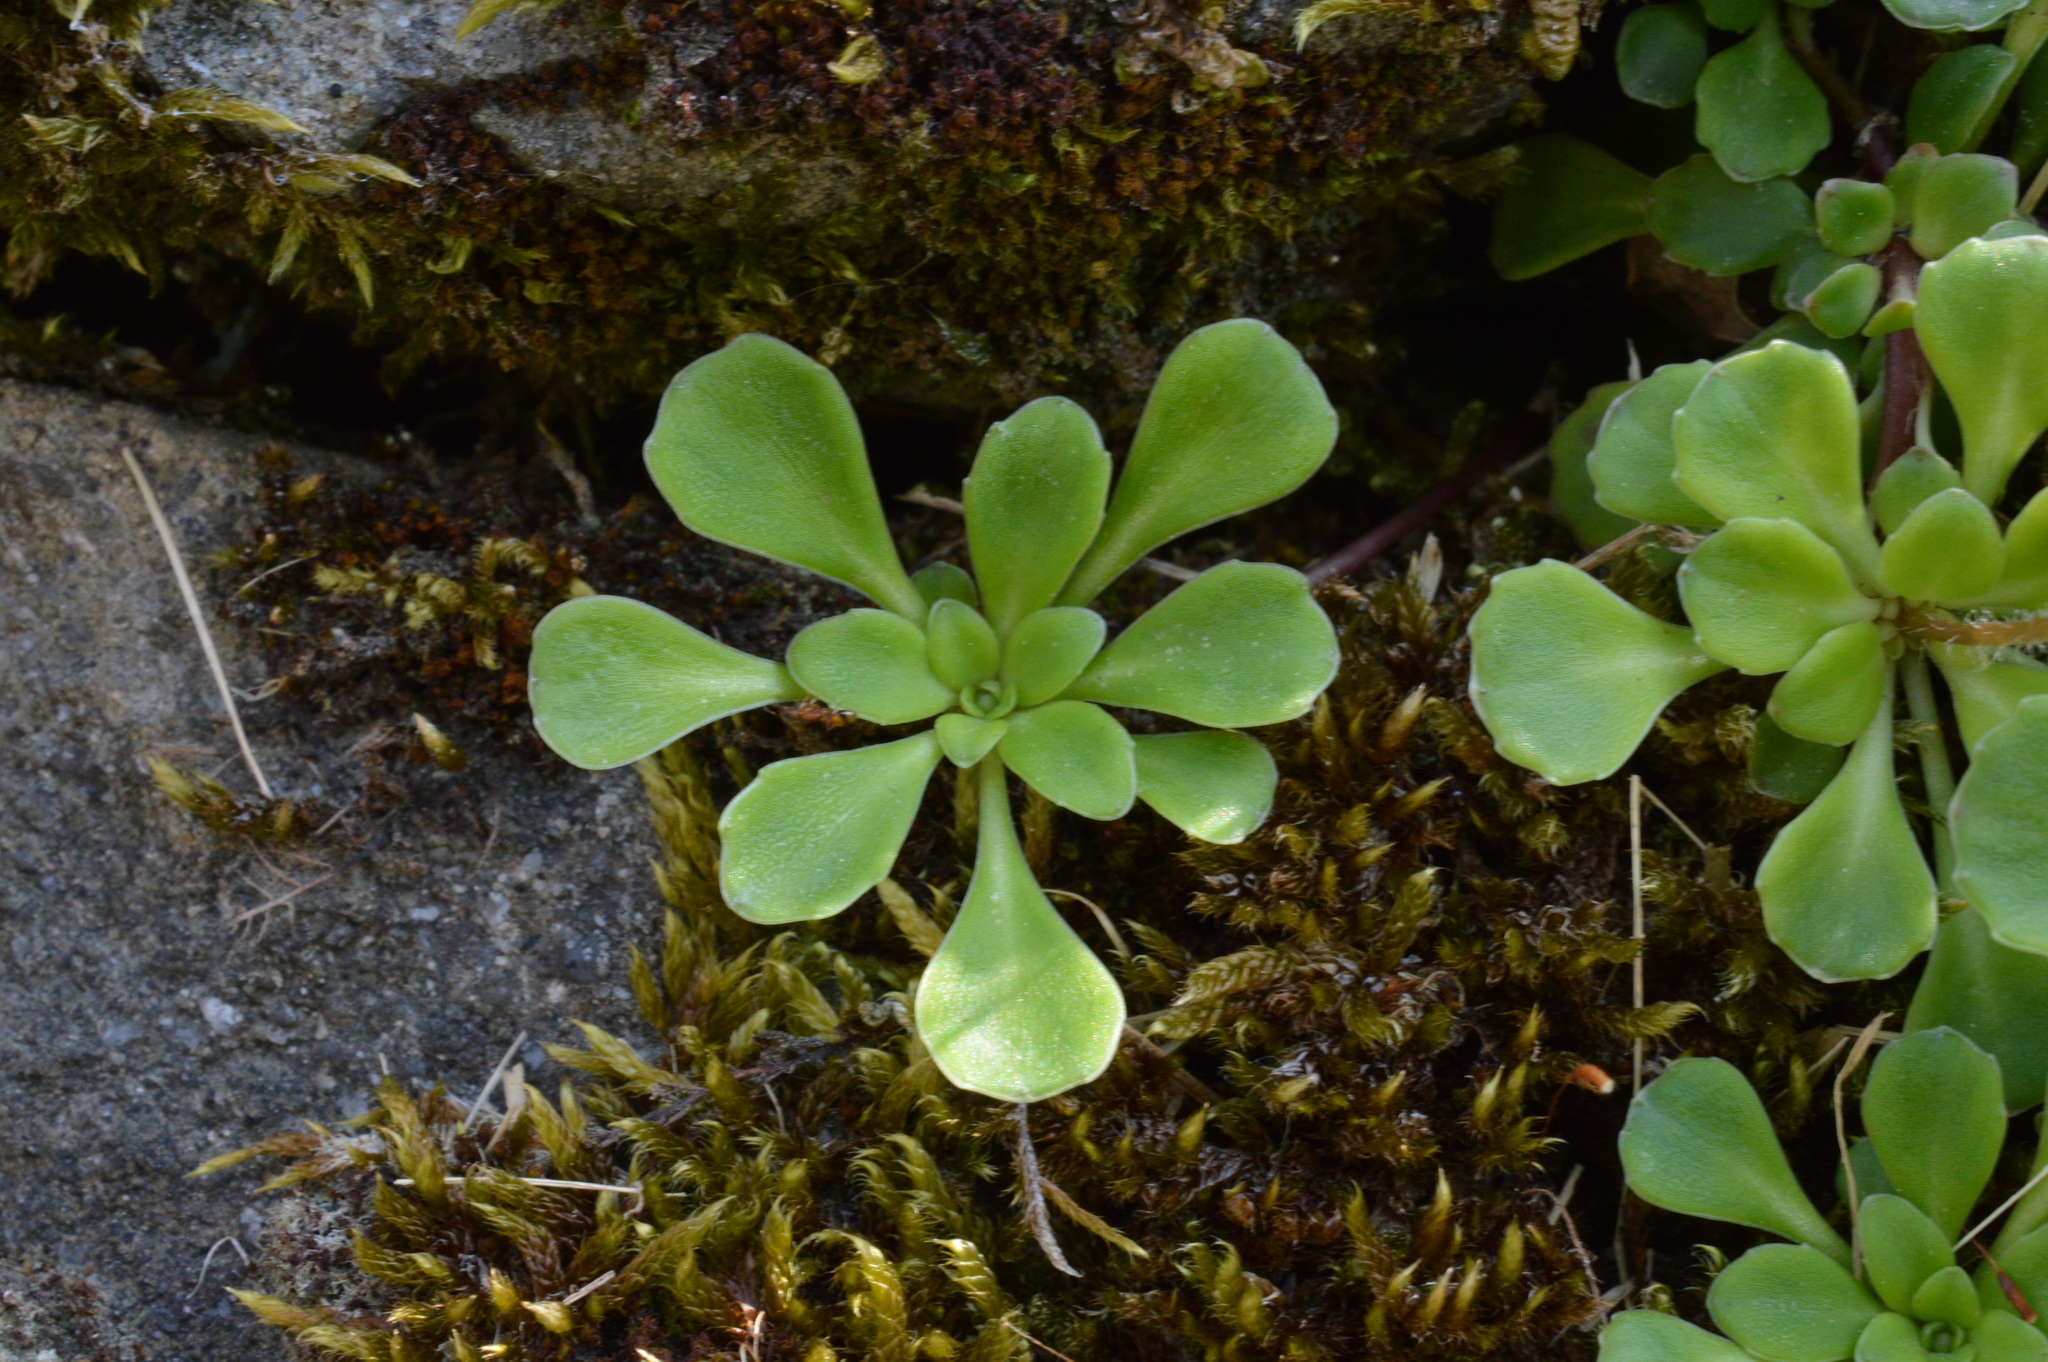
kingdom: Plantae
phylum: Tracheophyta
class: Magnoliopsida
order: Saxifragales
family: Saxifragaceae
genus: Saxifraga
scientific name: Saxifraga cuneifolia
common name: Lesser londonpride
